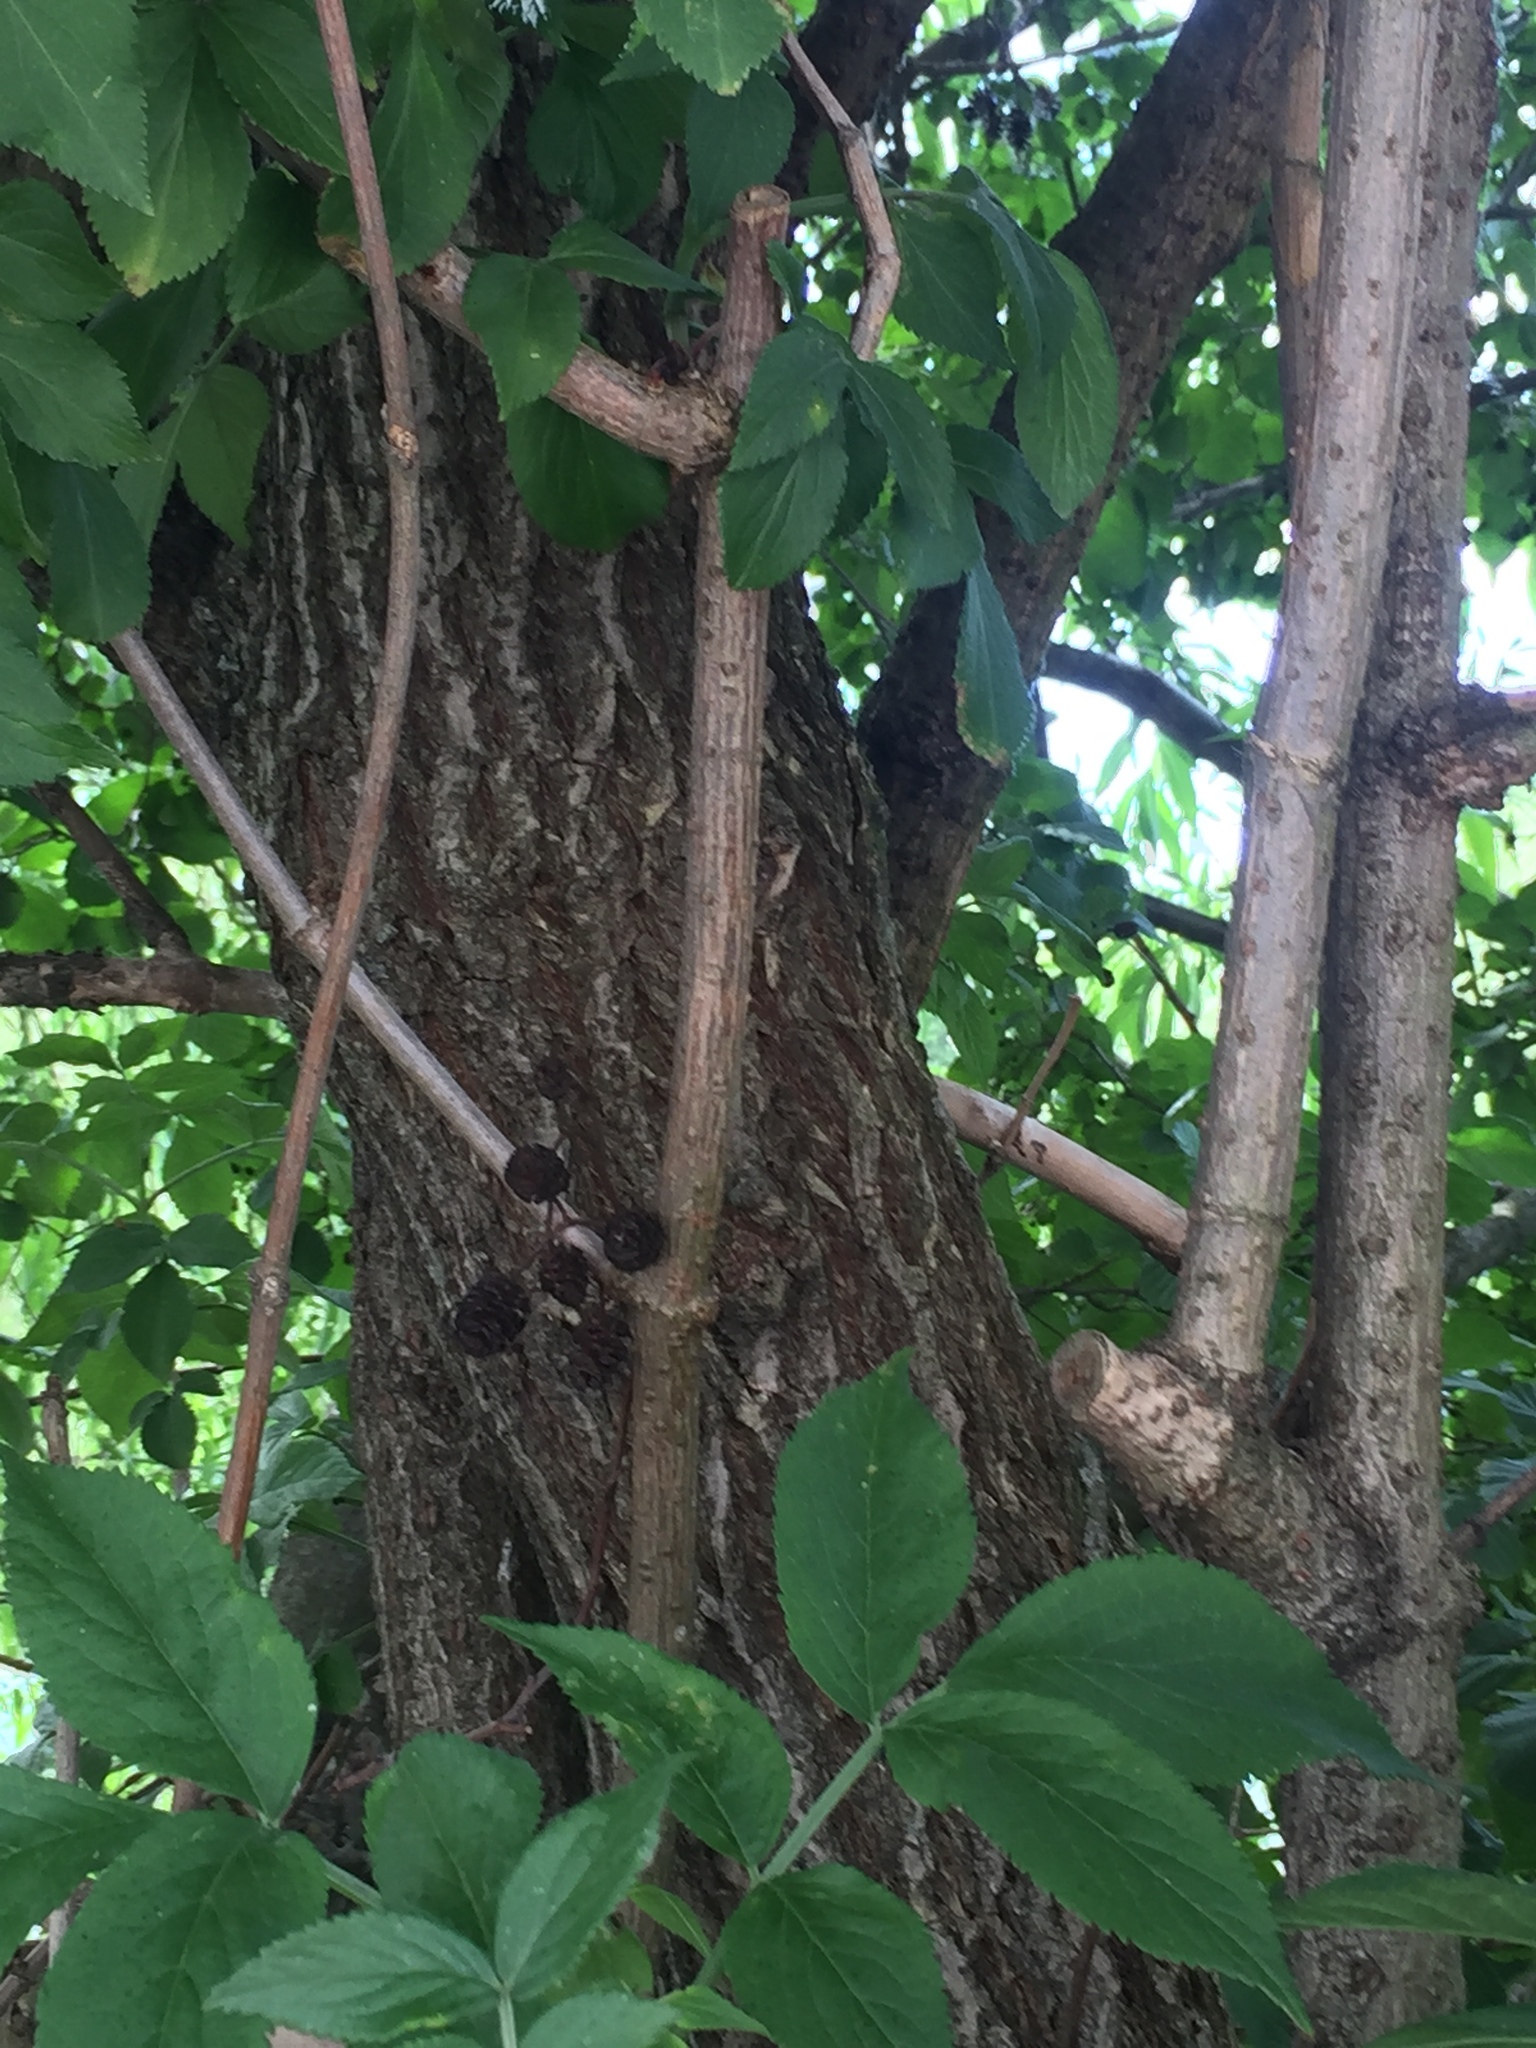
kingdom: Plantae
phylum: Tracheophyta
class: Magnoliopsida
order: Dipsacales
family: Viburnaceae
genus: Sambucus
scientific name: Sambucus nigra
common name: Elder
